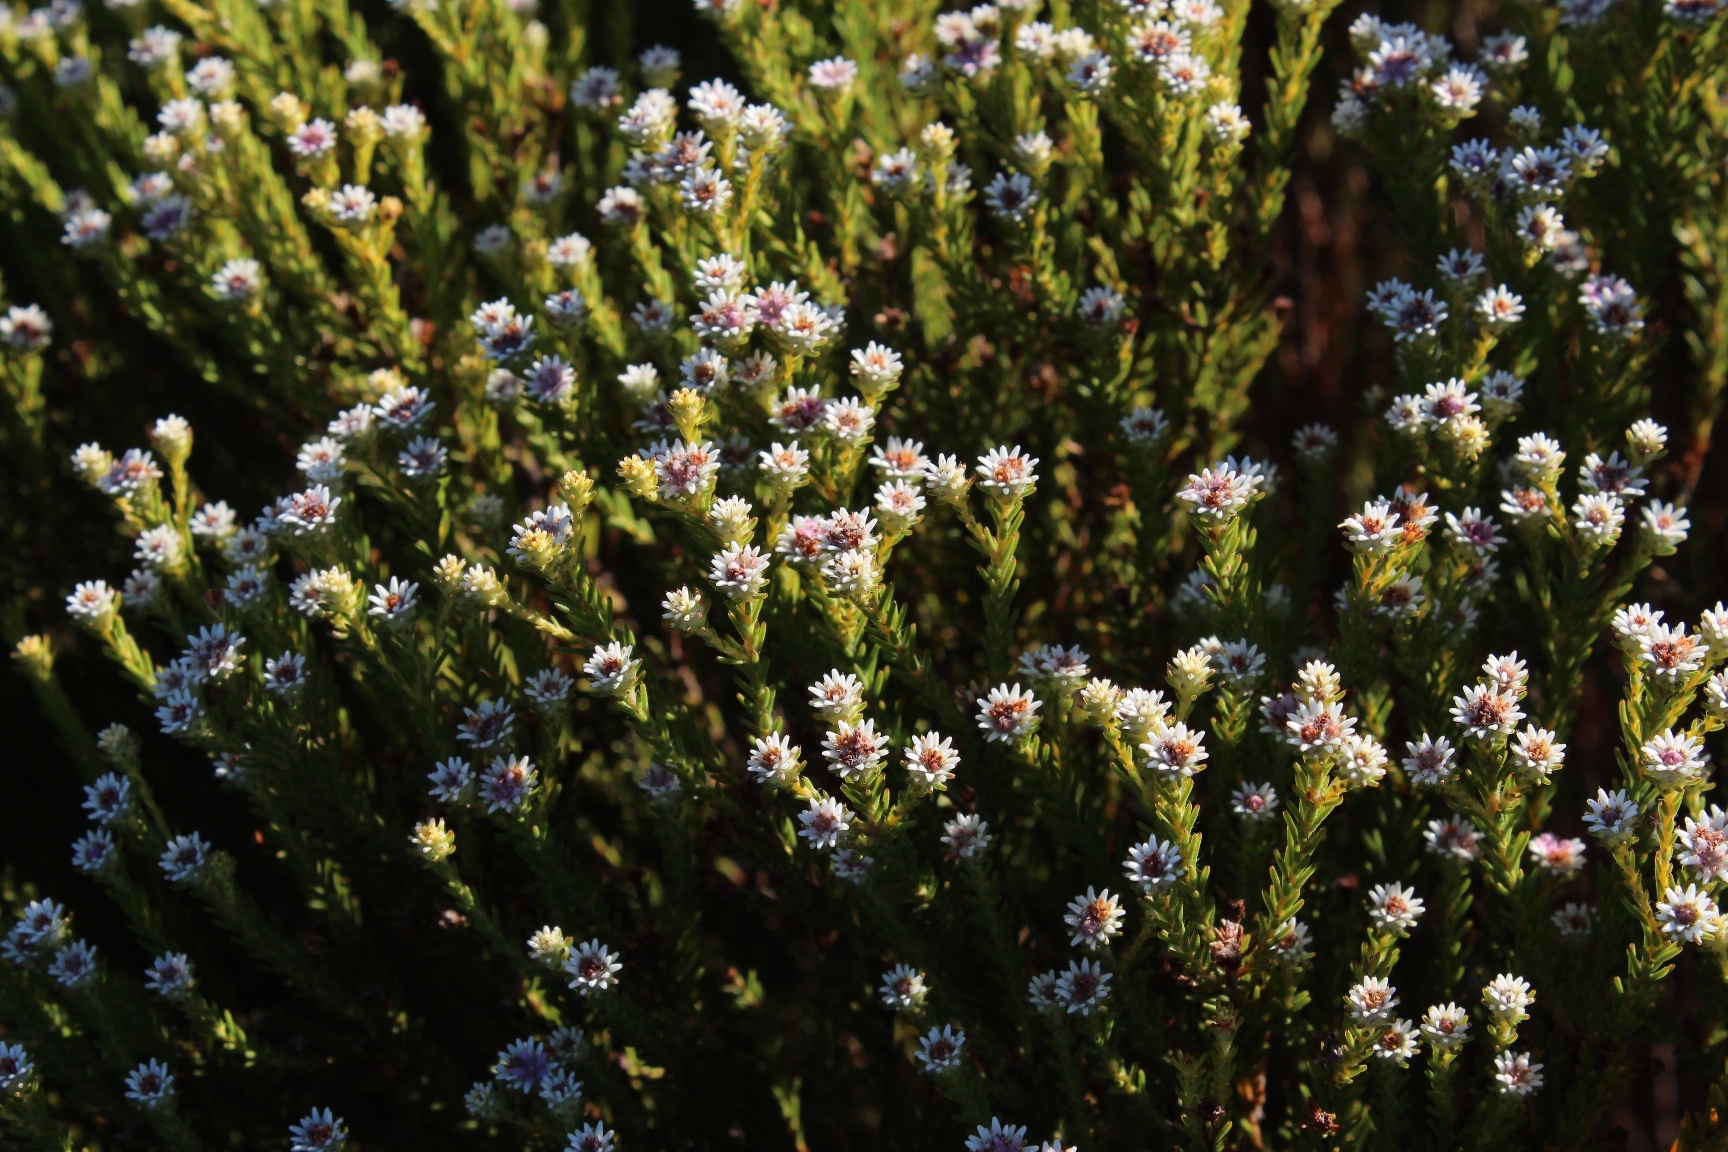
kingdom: Plantae
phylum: Tracheophyta
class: Magnoliopsida
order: Bruniales
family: Bruniaceae
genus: Staavia
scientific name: Staavia radiata
